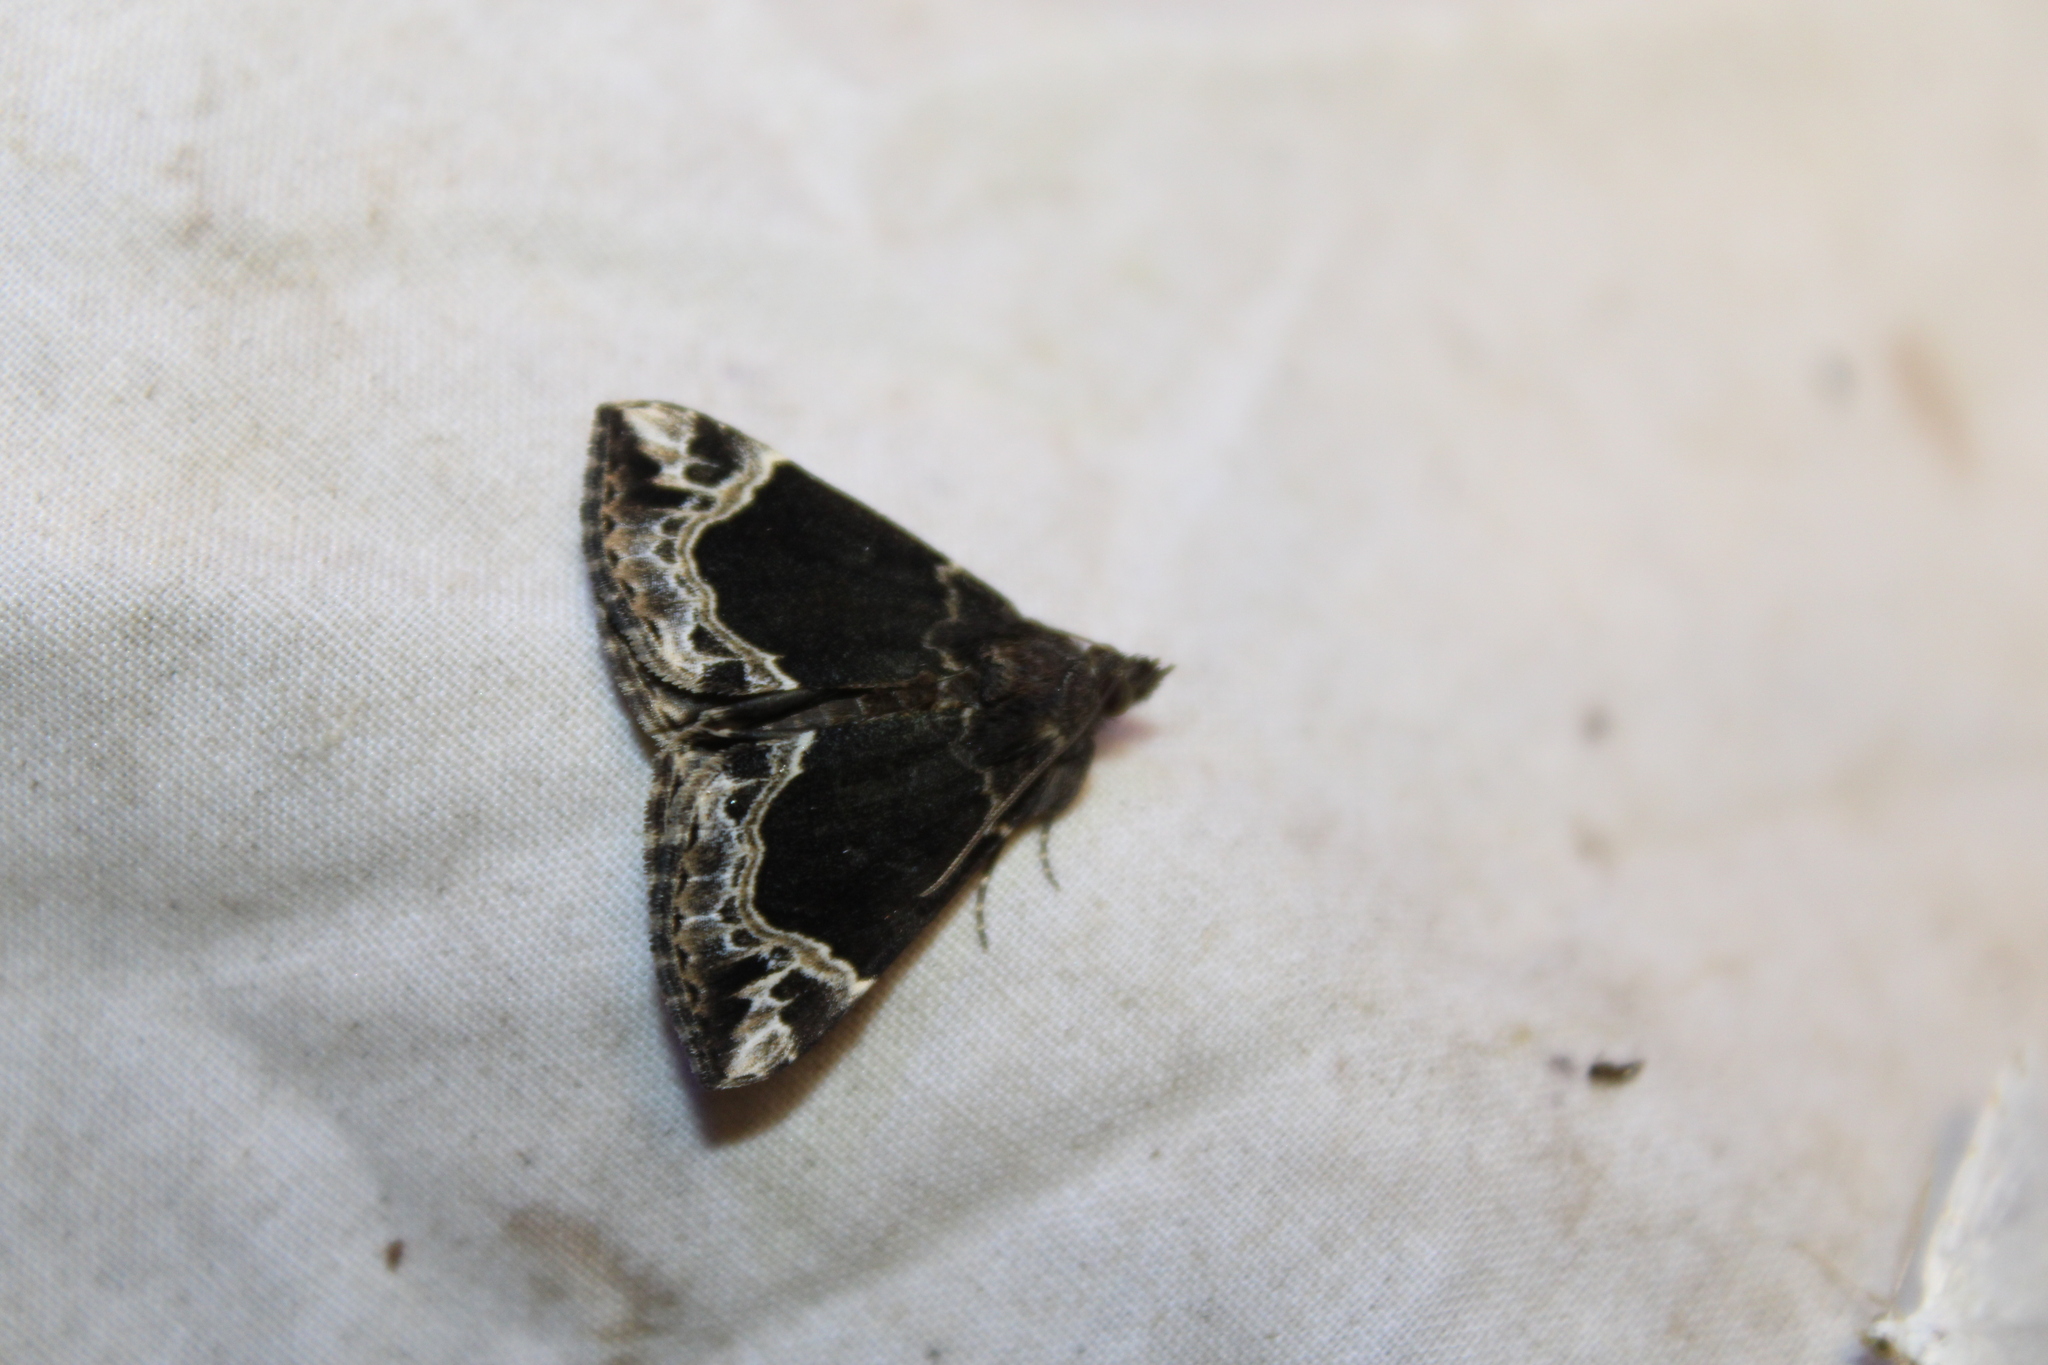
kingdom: Animalia
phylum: Arthropoda
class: Insecta
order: Lepidoptera
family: Erebidae
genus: Hypena
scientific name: Hypena abalienalis
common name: White-lined snout
